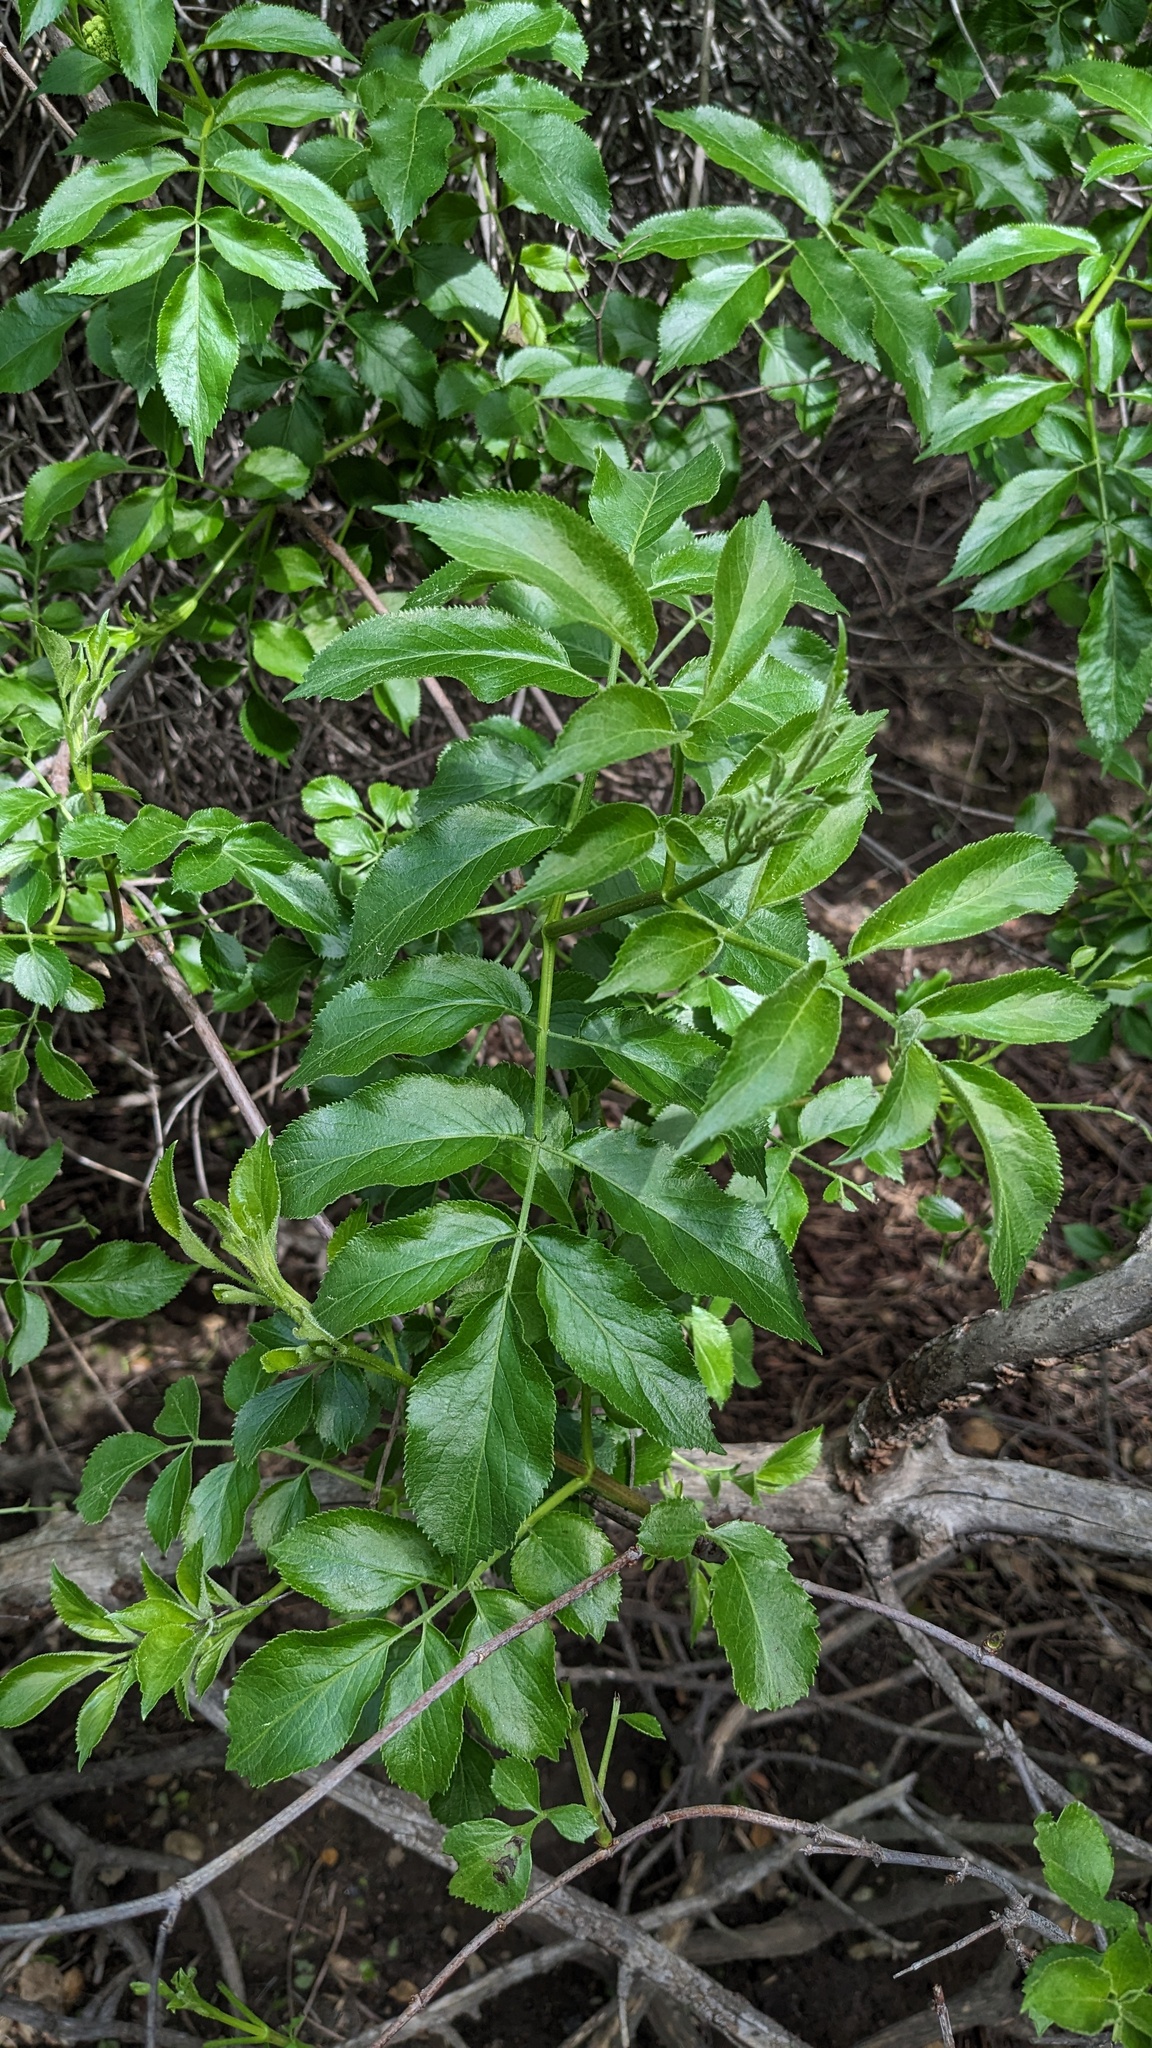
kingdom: Plantae
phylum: Tracheophyta
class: Magnoliopsida
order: Dipsacales
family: Viburnaceae
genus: Sambucus
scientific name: Sambucus cerulea
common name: Blue elder
